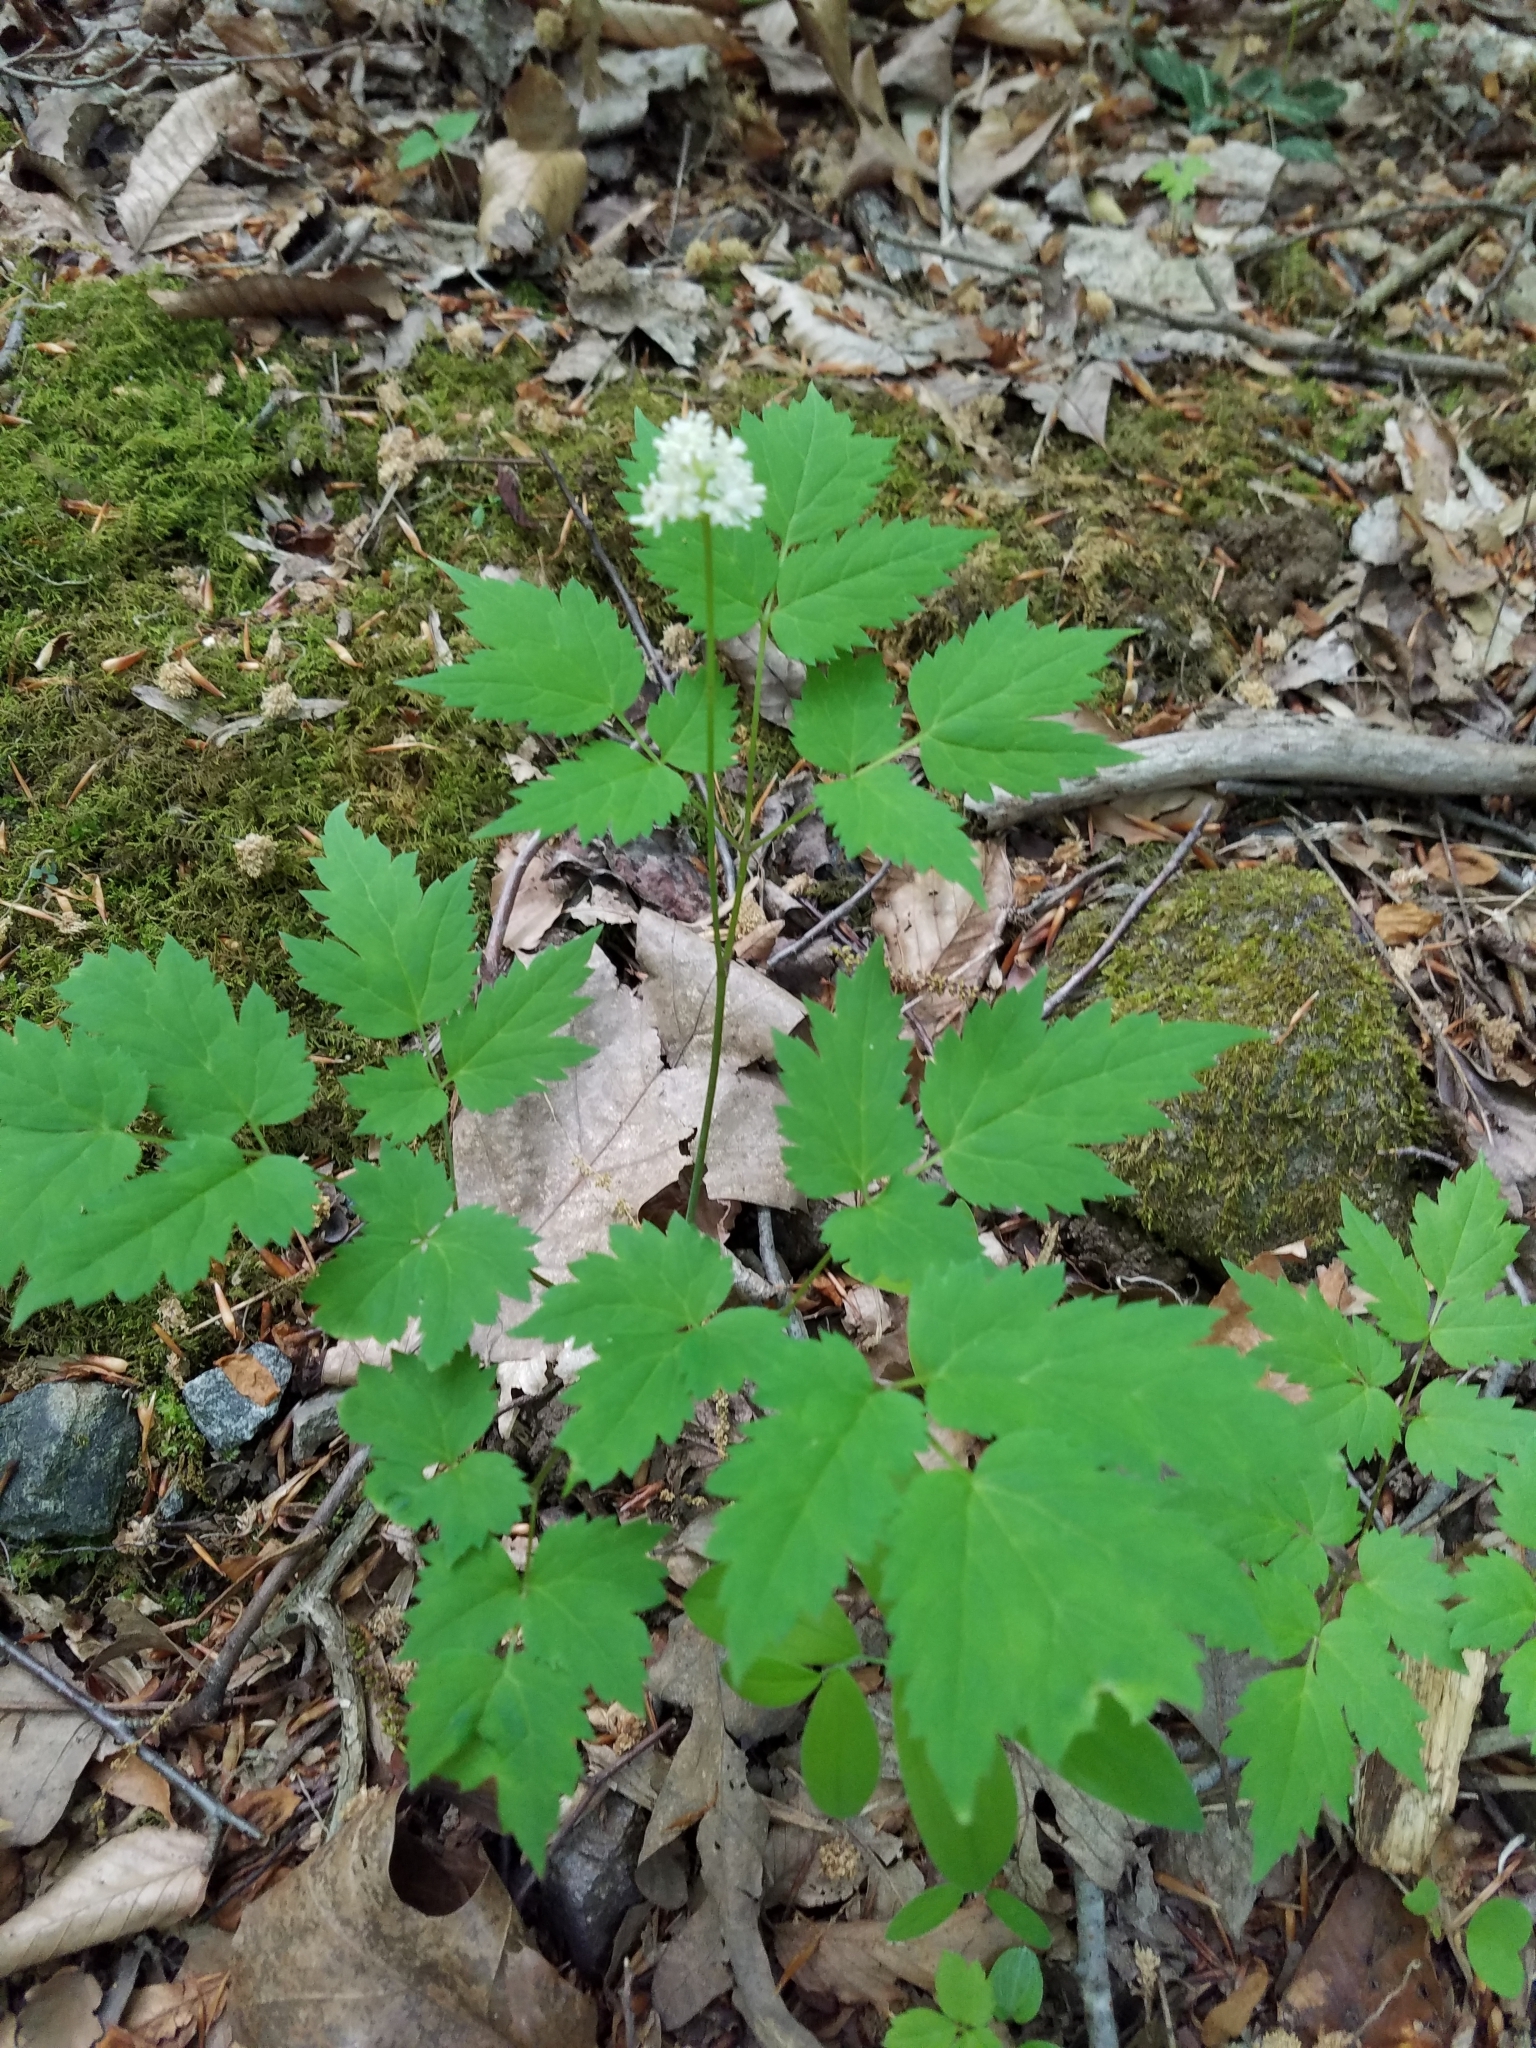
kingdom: Plantae
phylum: Tracheophyta
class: Magnoliopsida
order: Ranunculales
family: Ranunculaceae
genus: Actaea
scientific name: Actaea pachypoda
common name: Doll's-eyes
